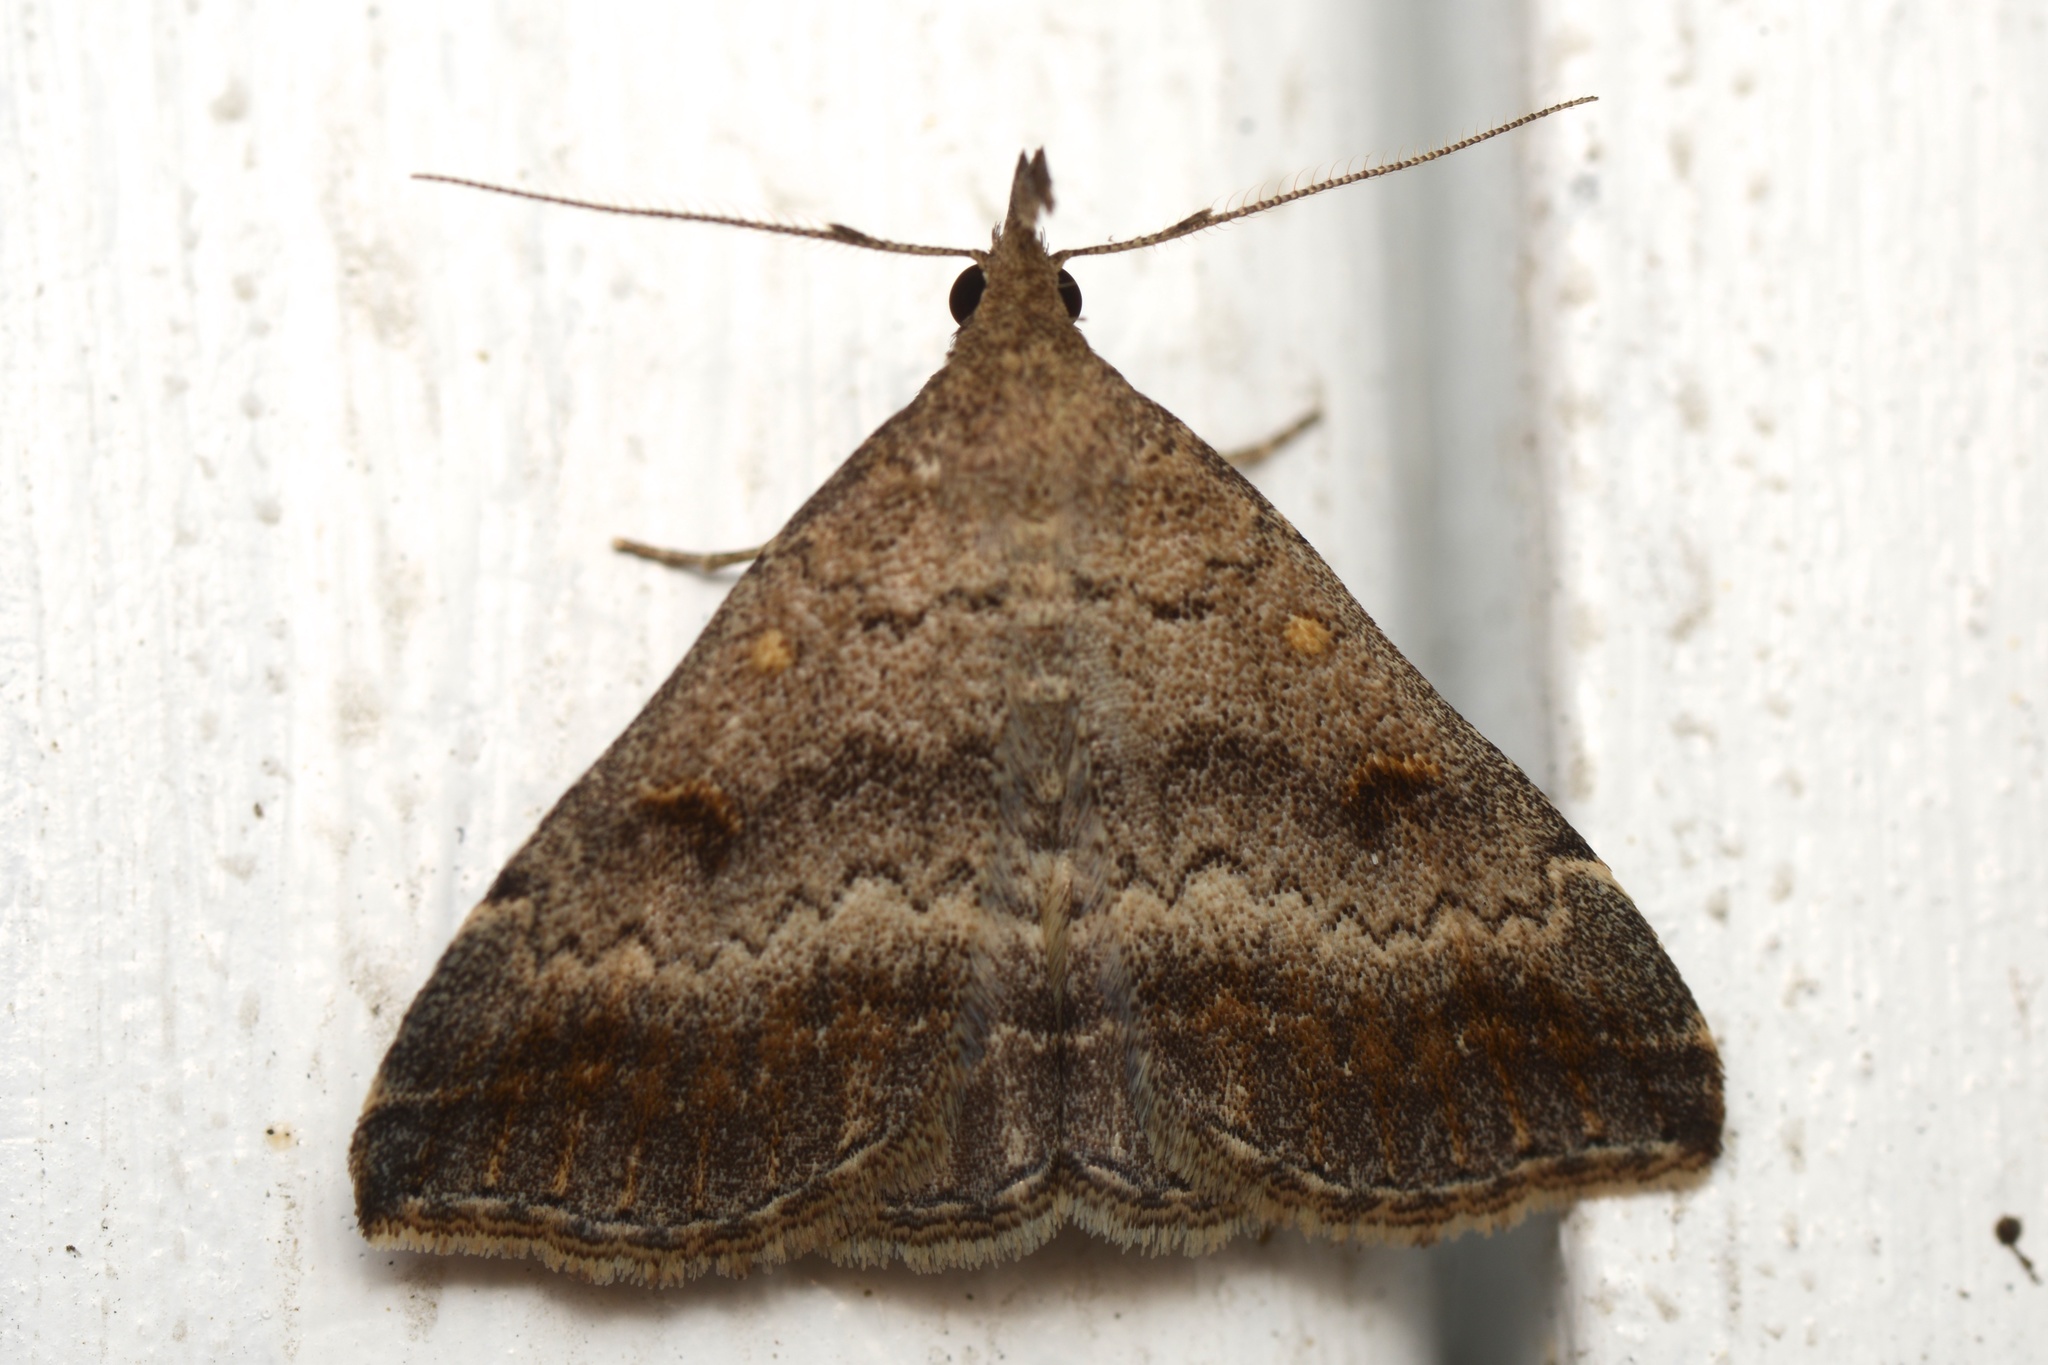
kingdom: Animalia
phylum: Arthropoda
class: Insecta
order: Lepidoptera
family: Erebidae
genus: Tetanolita
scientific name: Tetanolita palligera
